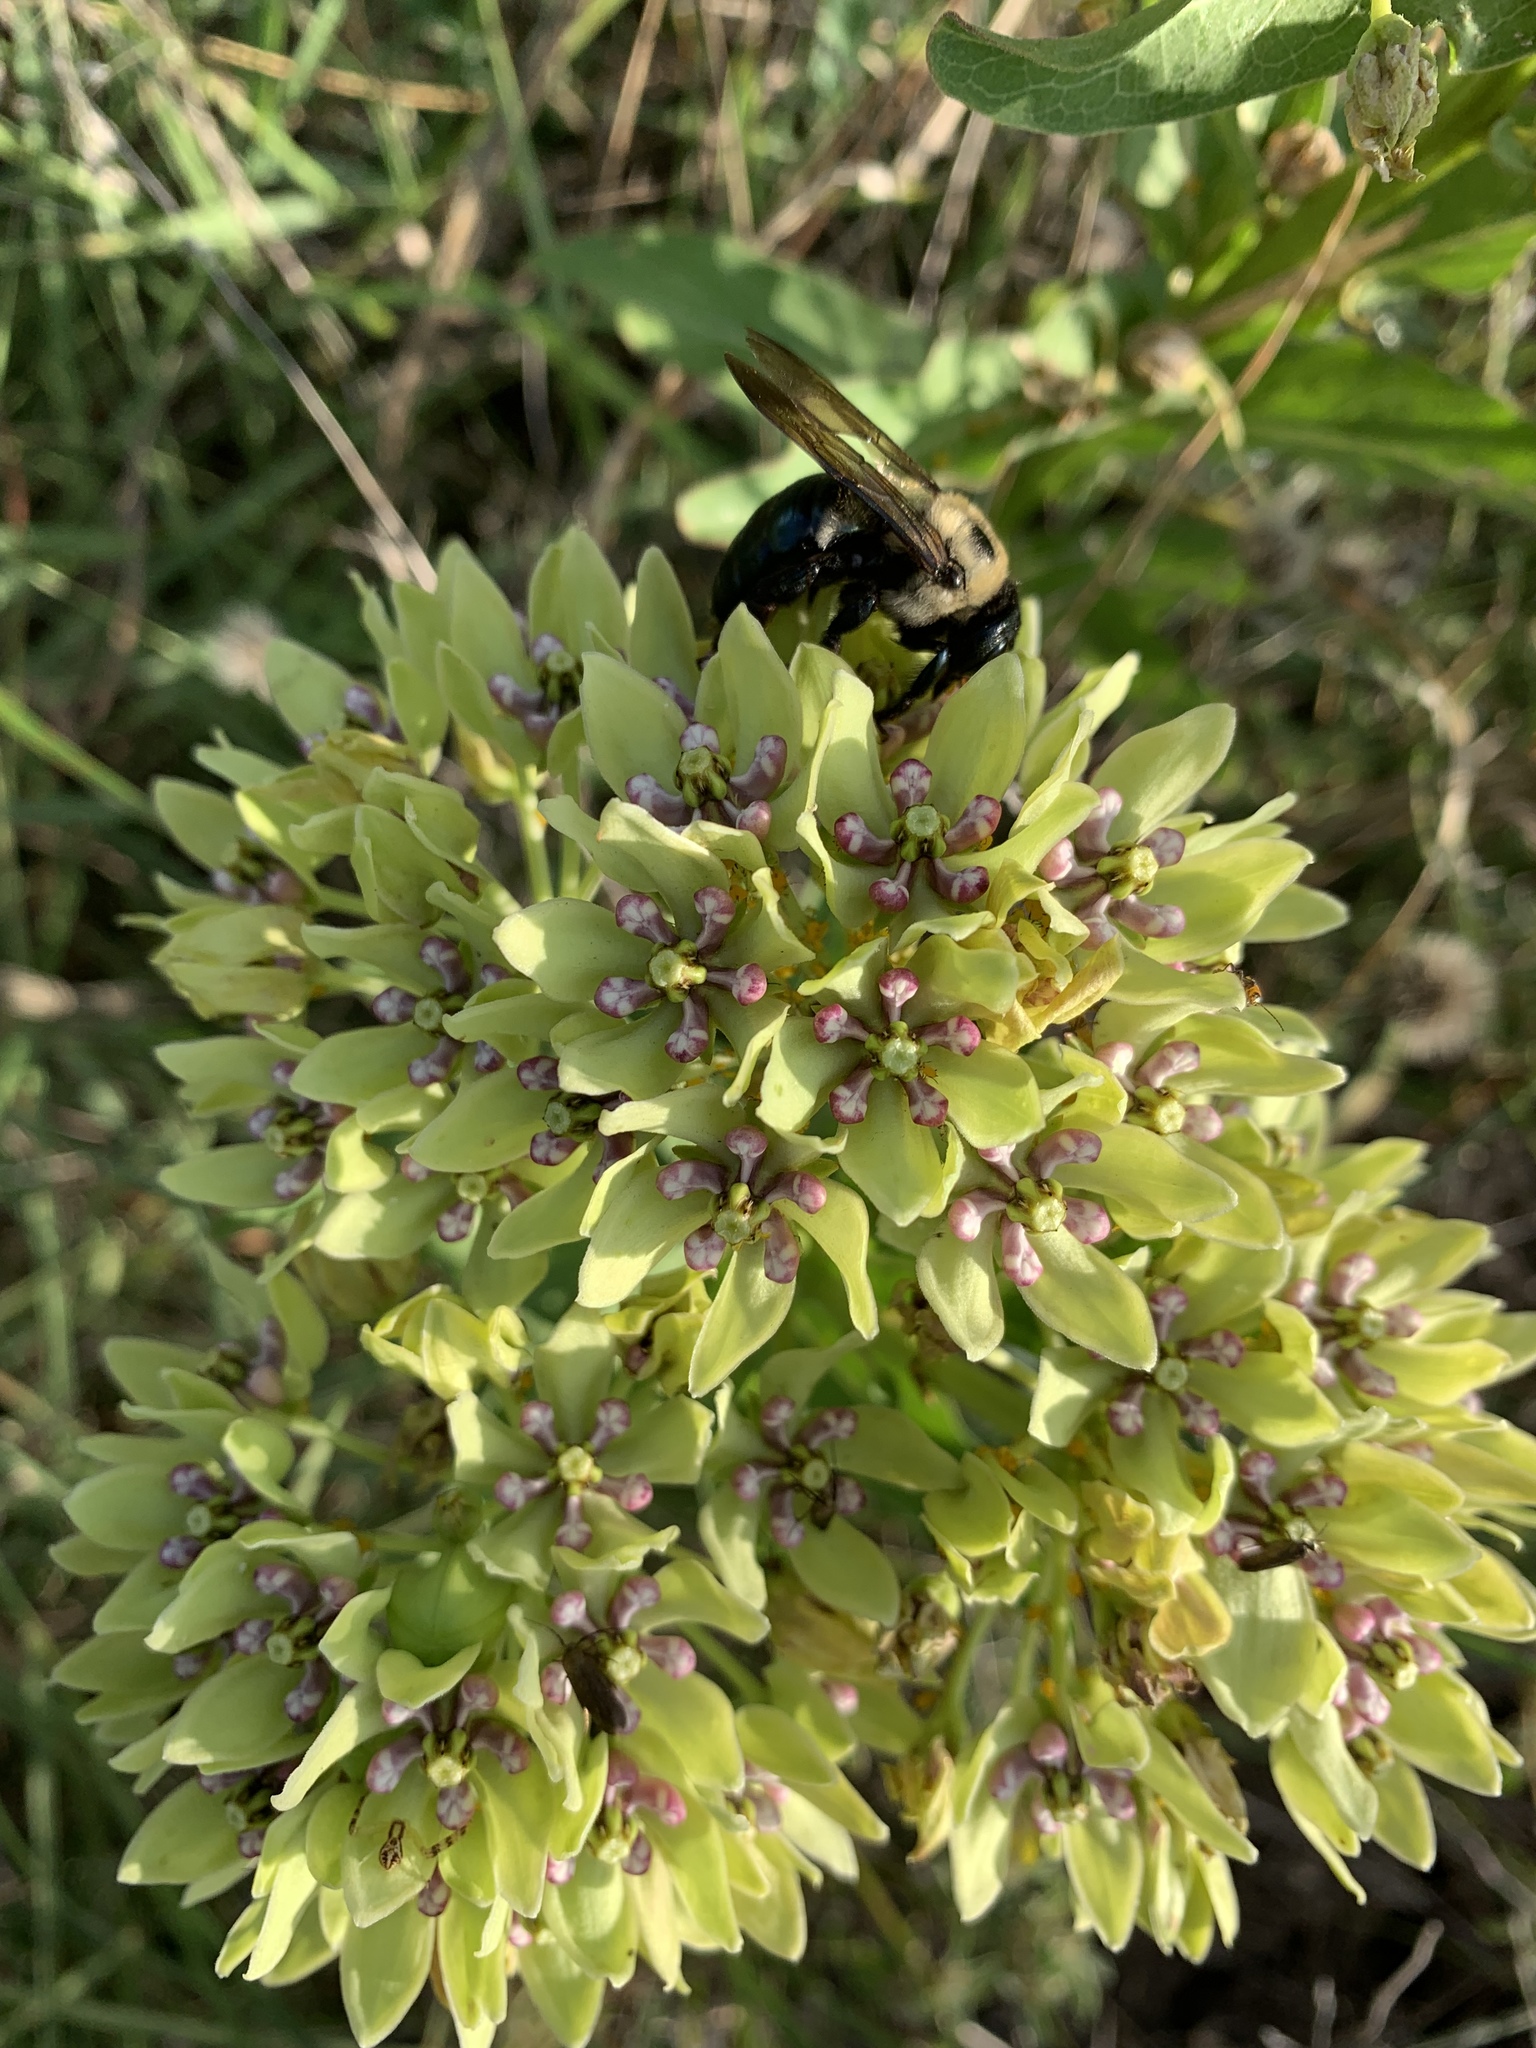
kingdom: Plantae
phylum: Tracheophyta
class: Magnoliopsida
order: Gentianales
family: Apocynaceae
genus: Asclepias
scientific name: Asclepias viridis
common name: Antelope-horns
